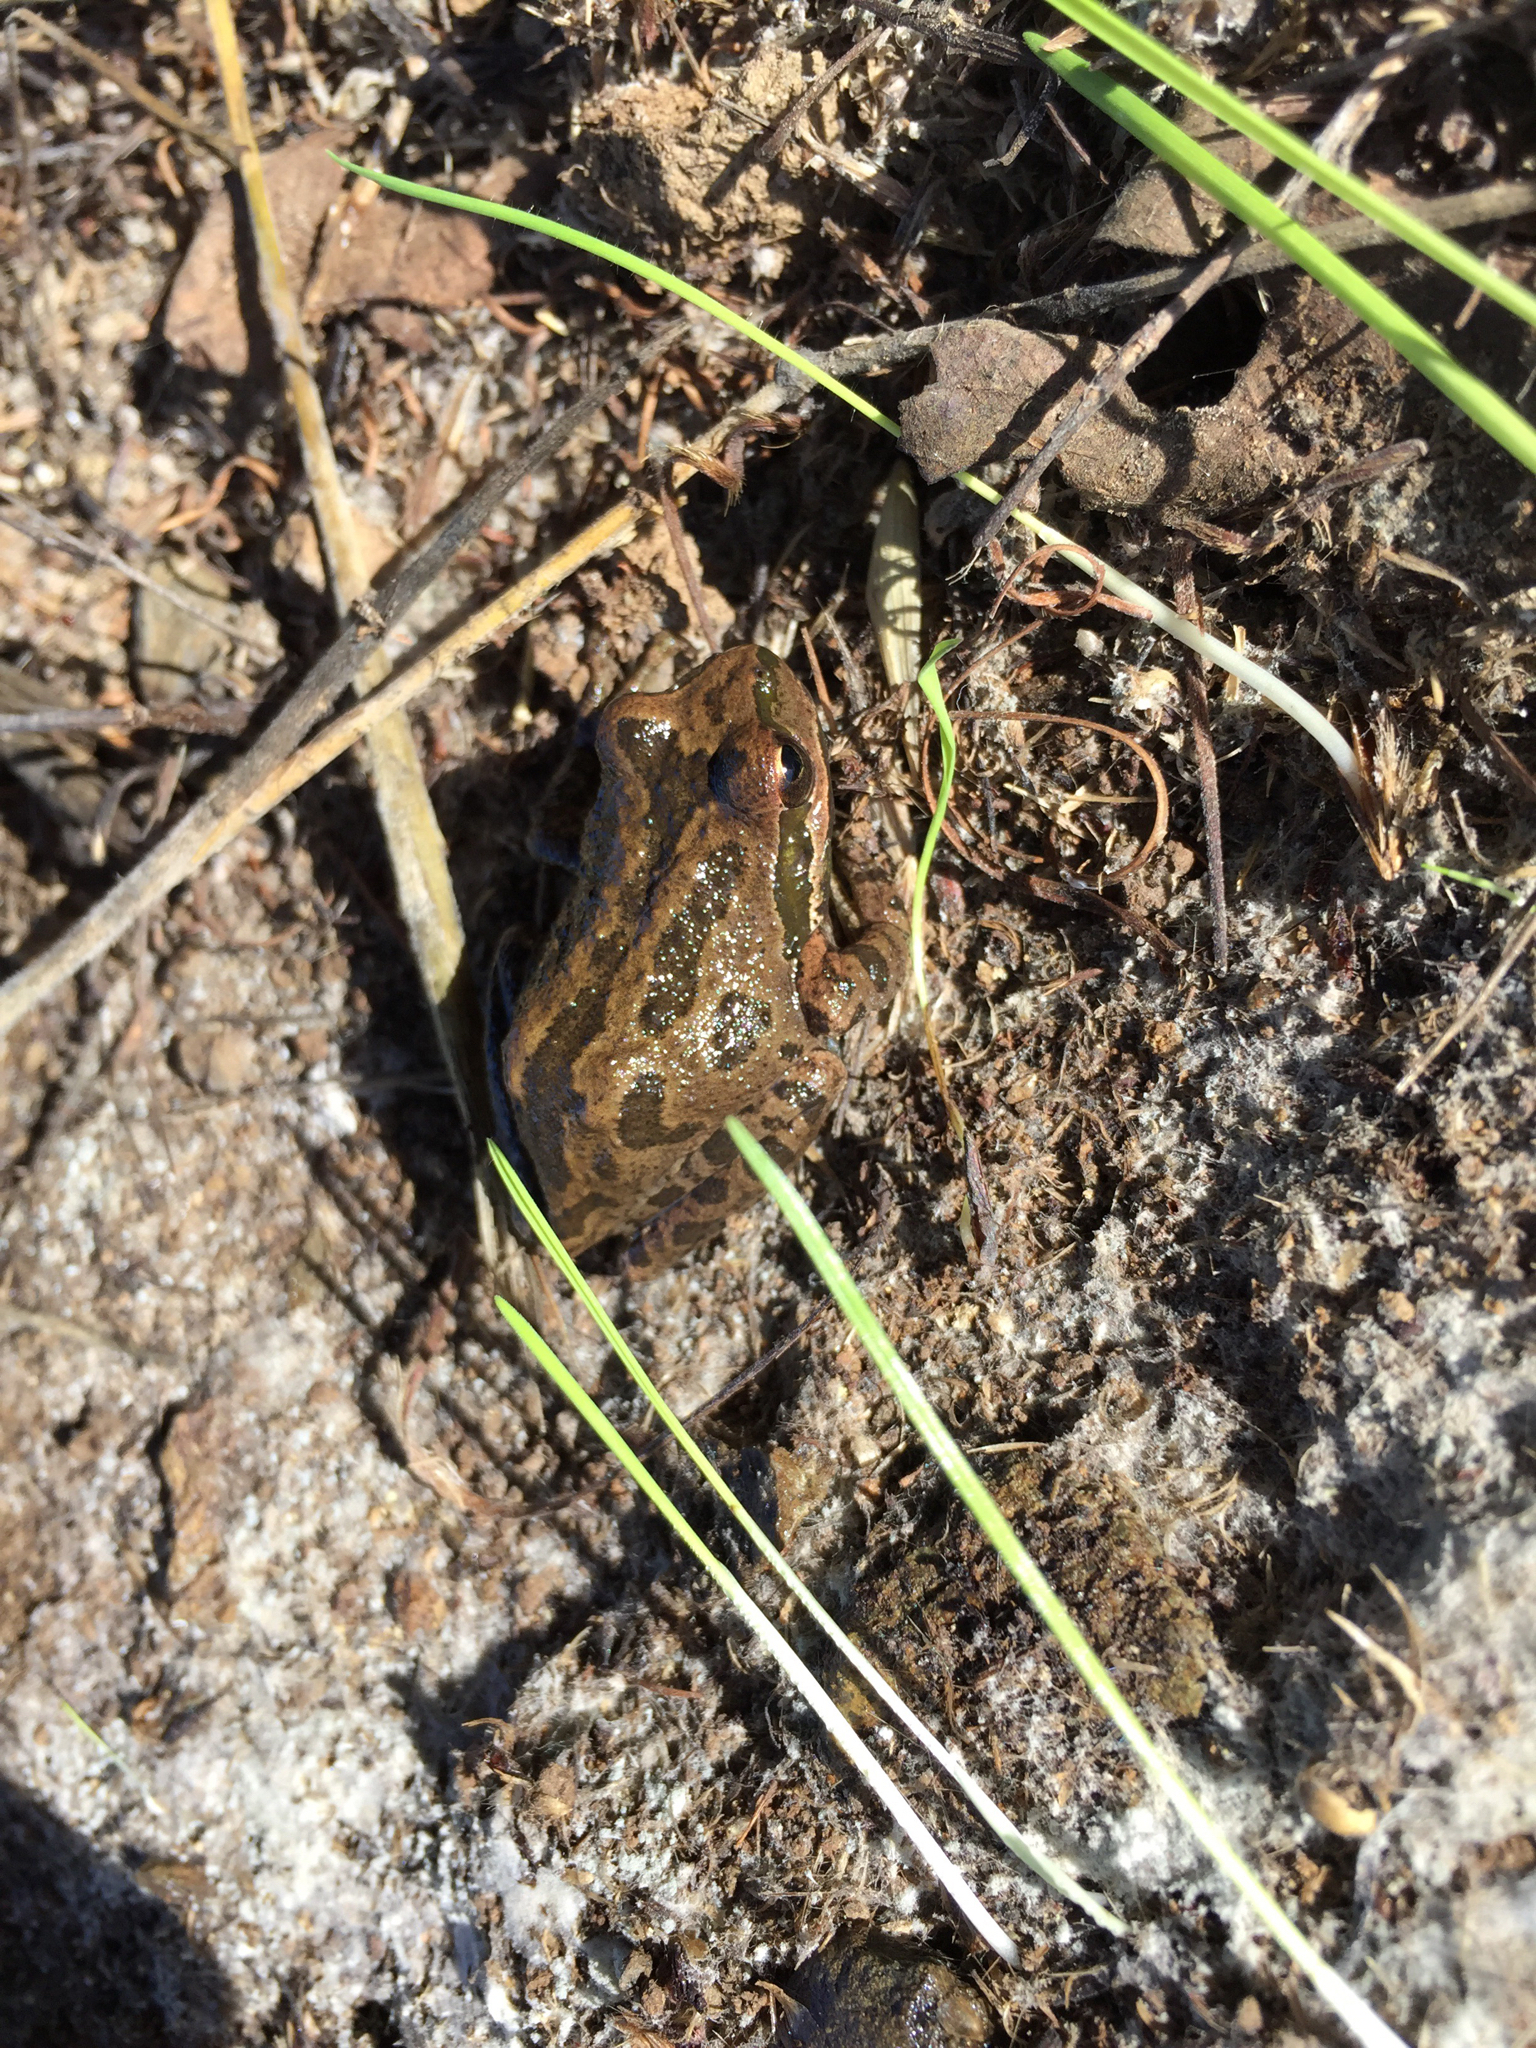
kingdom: Animalia
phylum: Chordata
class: Amphibia
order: Anura
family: Hylidae
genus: Pseudacris
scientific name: Pseudacris regilla
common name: Pacific chorus frog
